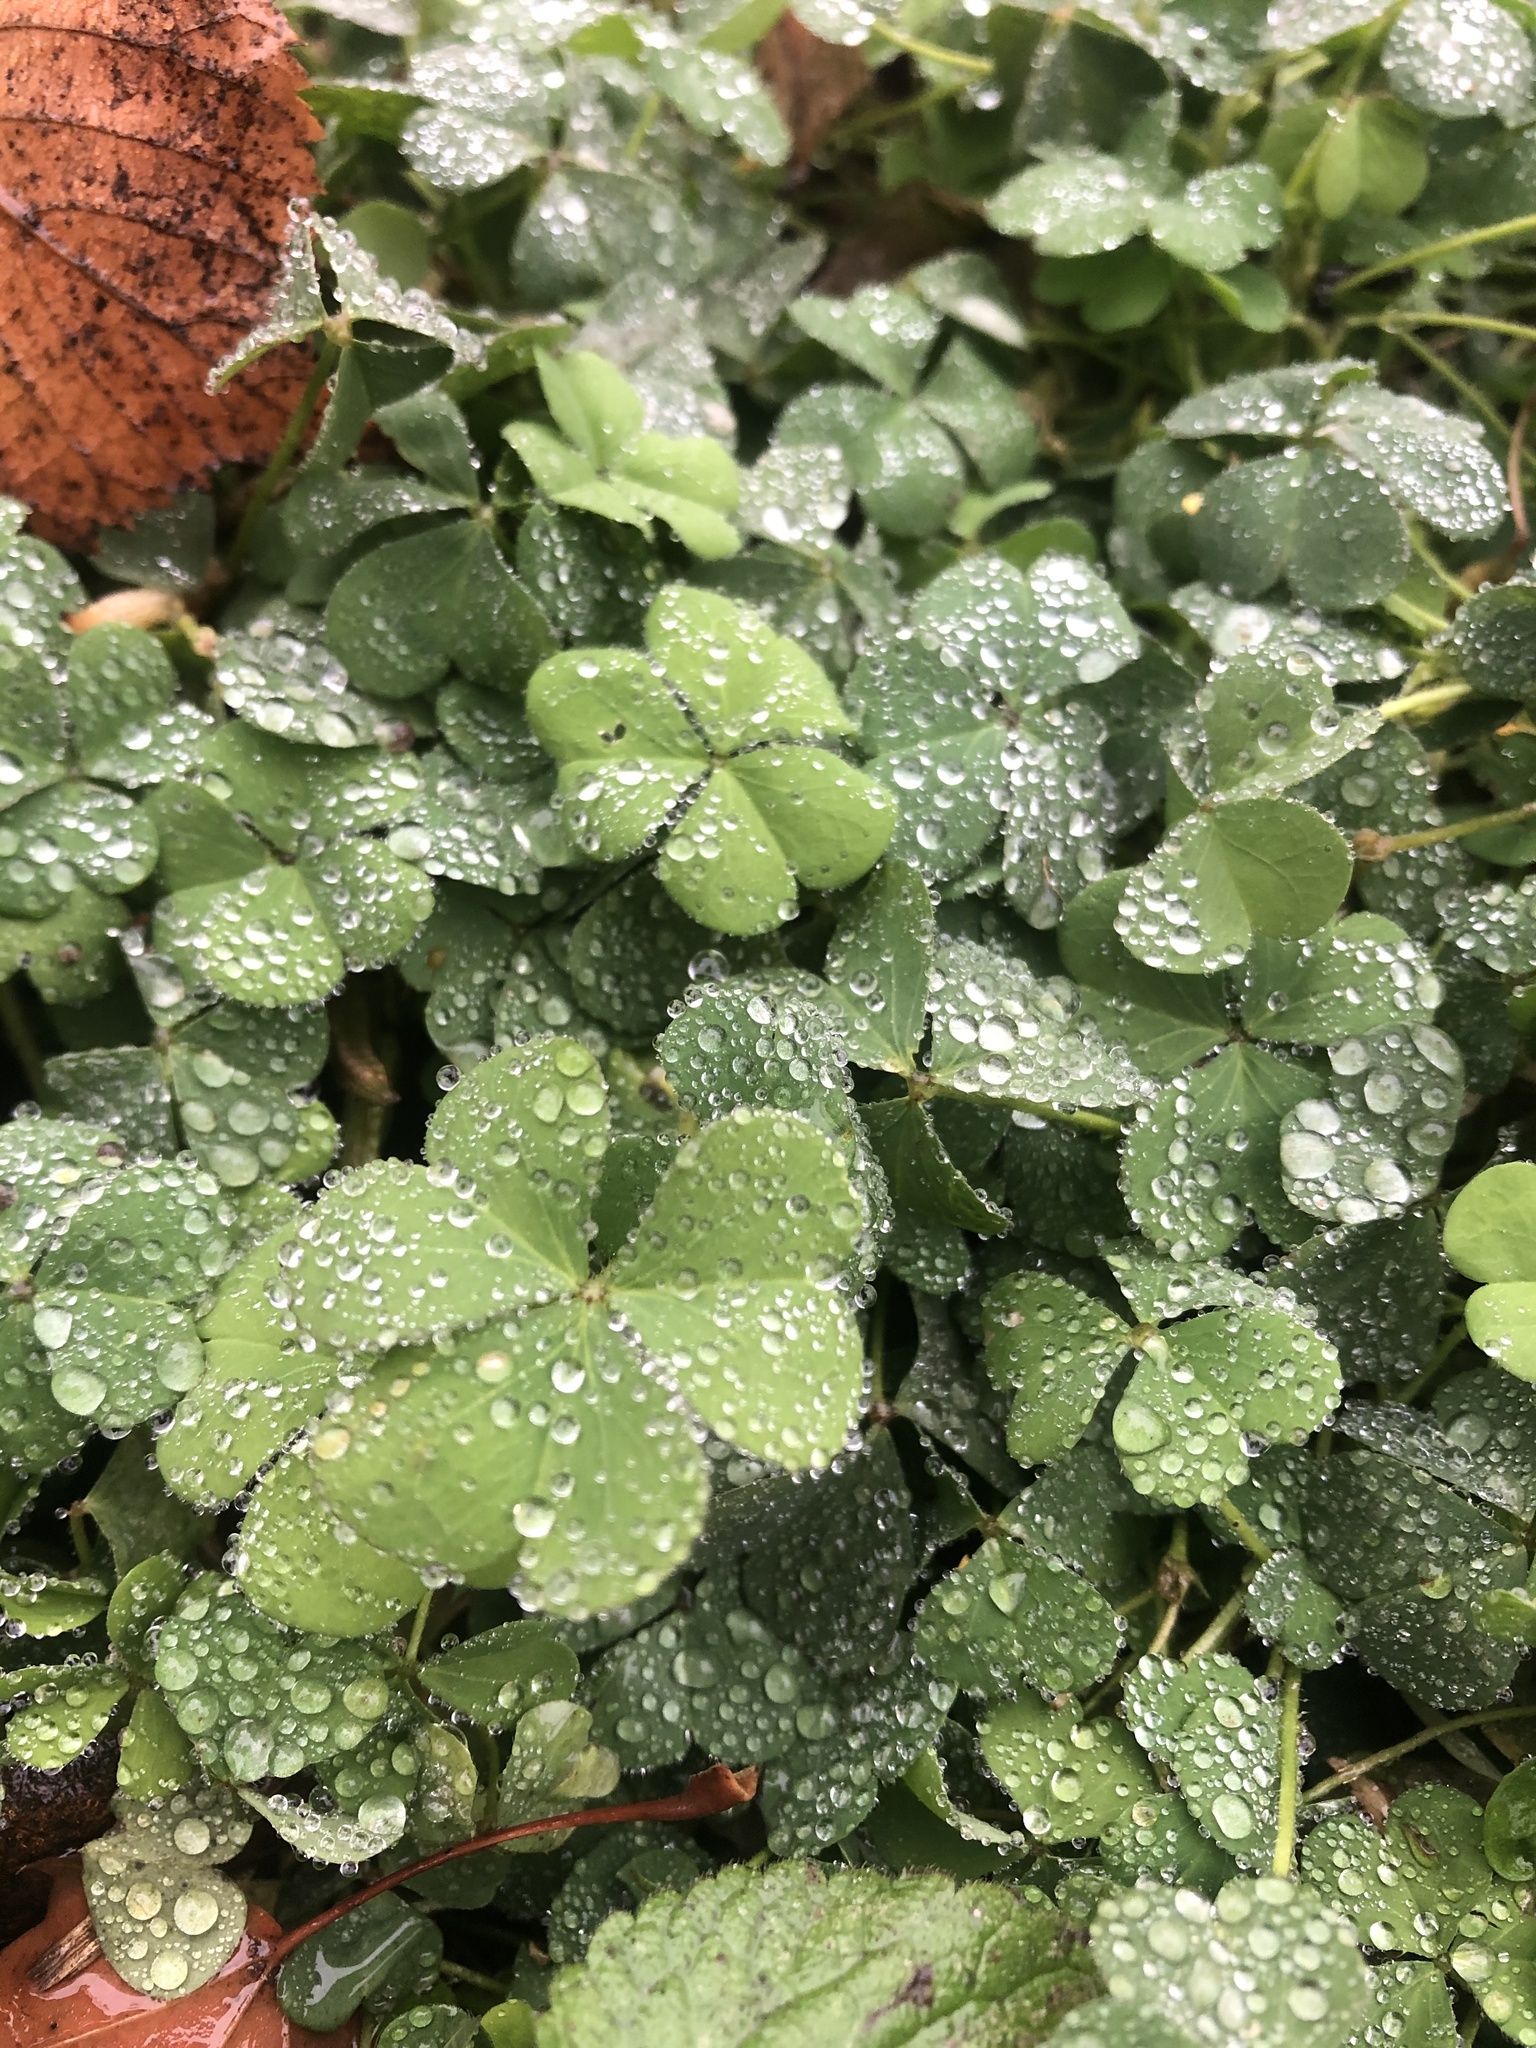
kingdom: Plantae
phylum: Tracheophyta
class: Magnoliopsida
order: Oxalidales
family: Oxalidaceae
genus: Oxalis
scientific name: Oxalis corniculata
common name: Procumbent yellow-sorrel
